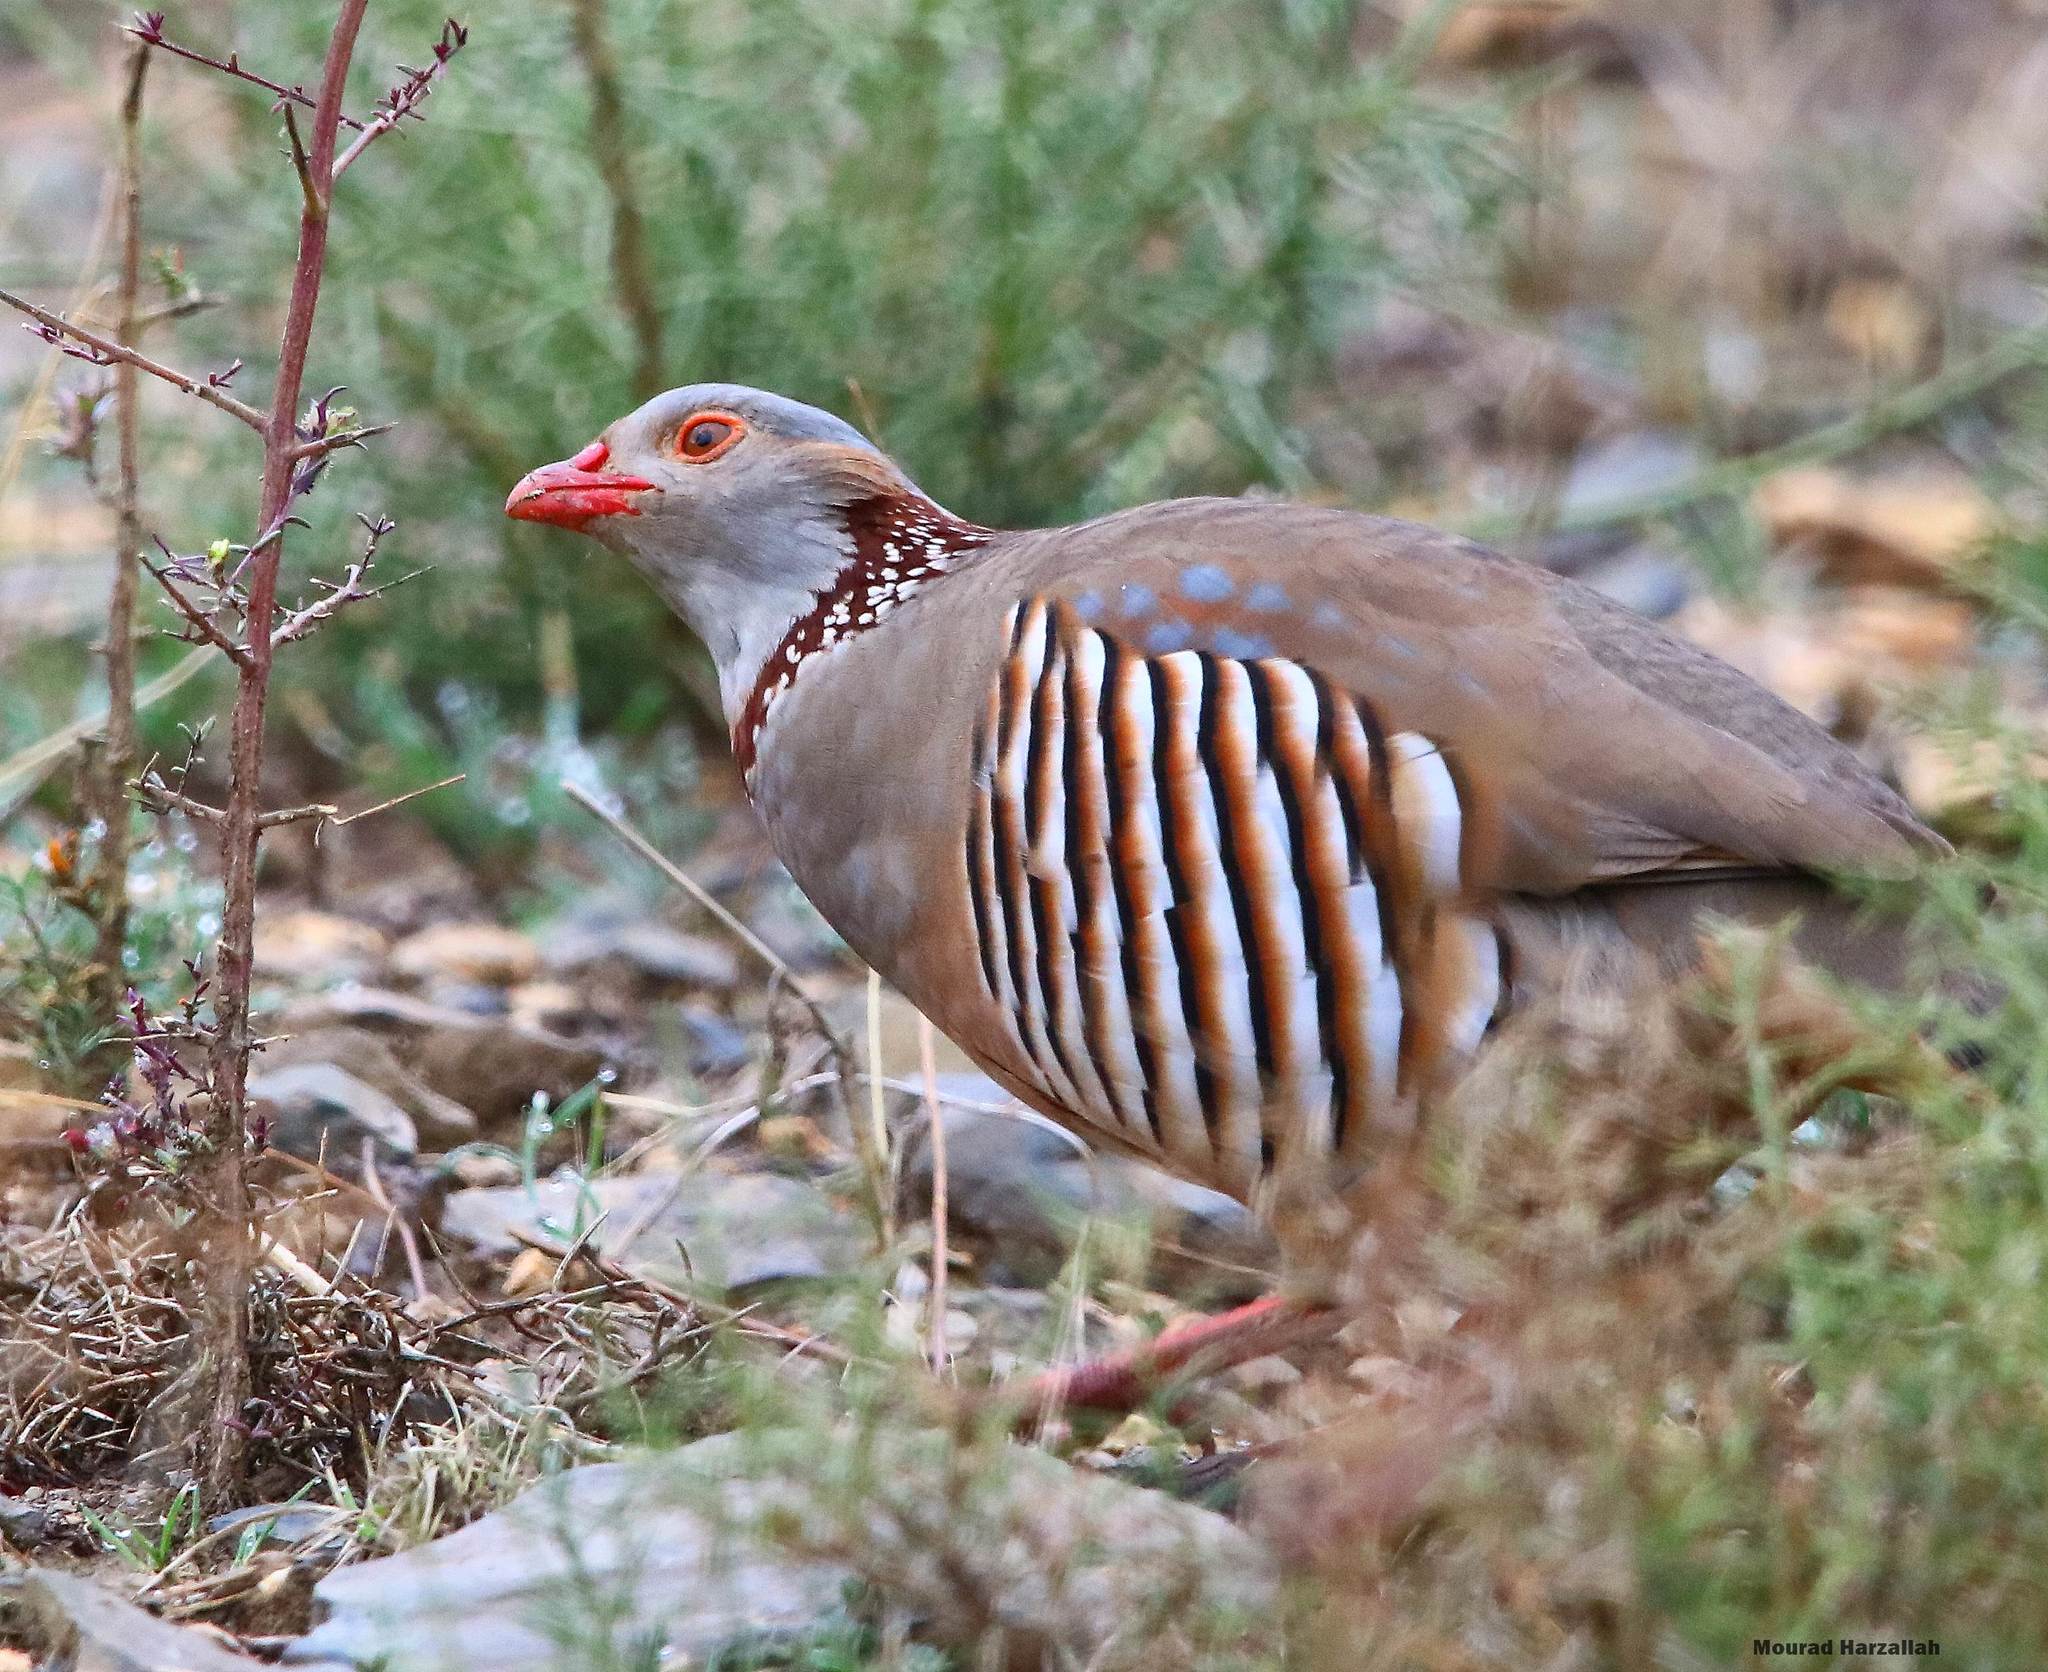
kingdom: Animalia
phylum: Chordata
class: Aves
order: Galliformes
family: Phasianidae
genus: Alectoris
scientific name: Alectoris barbara
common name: Barbary partridge
